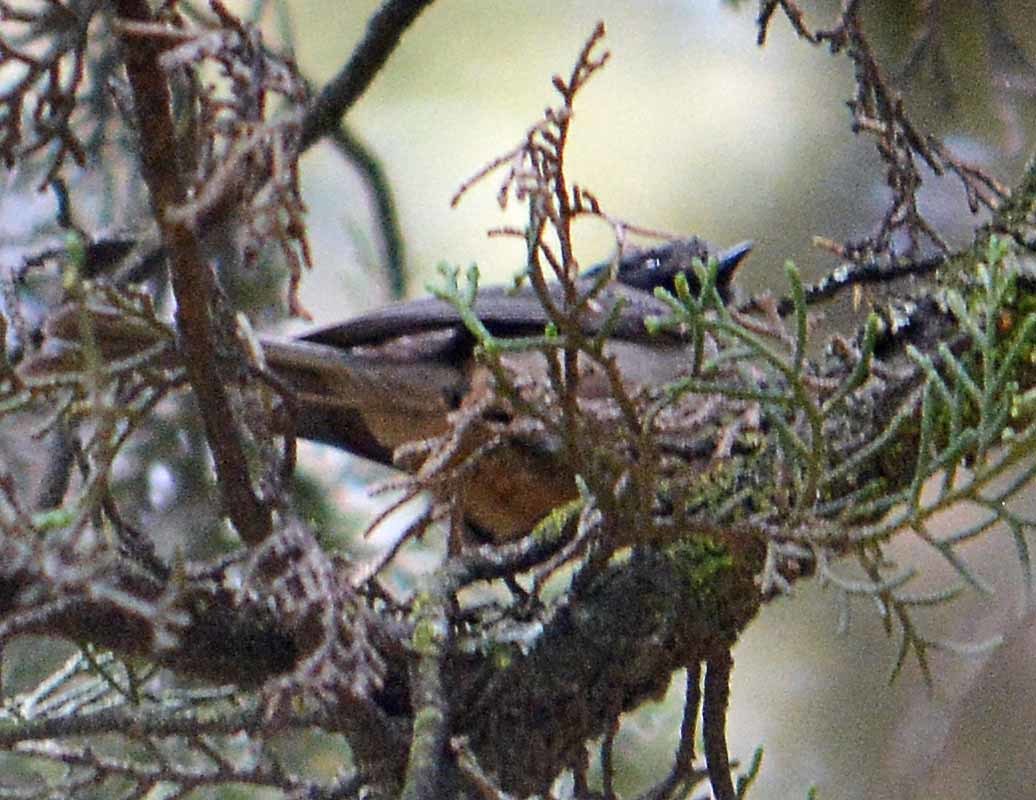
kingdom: Animalia
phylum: Chordata
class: Aves
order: Passeriformes
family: Aegithalidae
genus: Psaltriparus
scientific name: Psaltriparus minimus
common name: American bushtit
